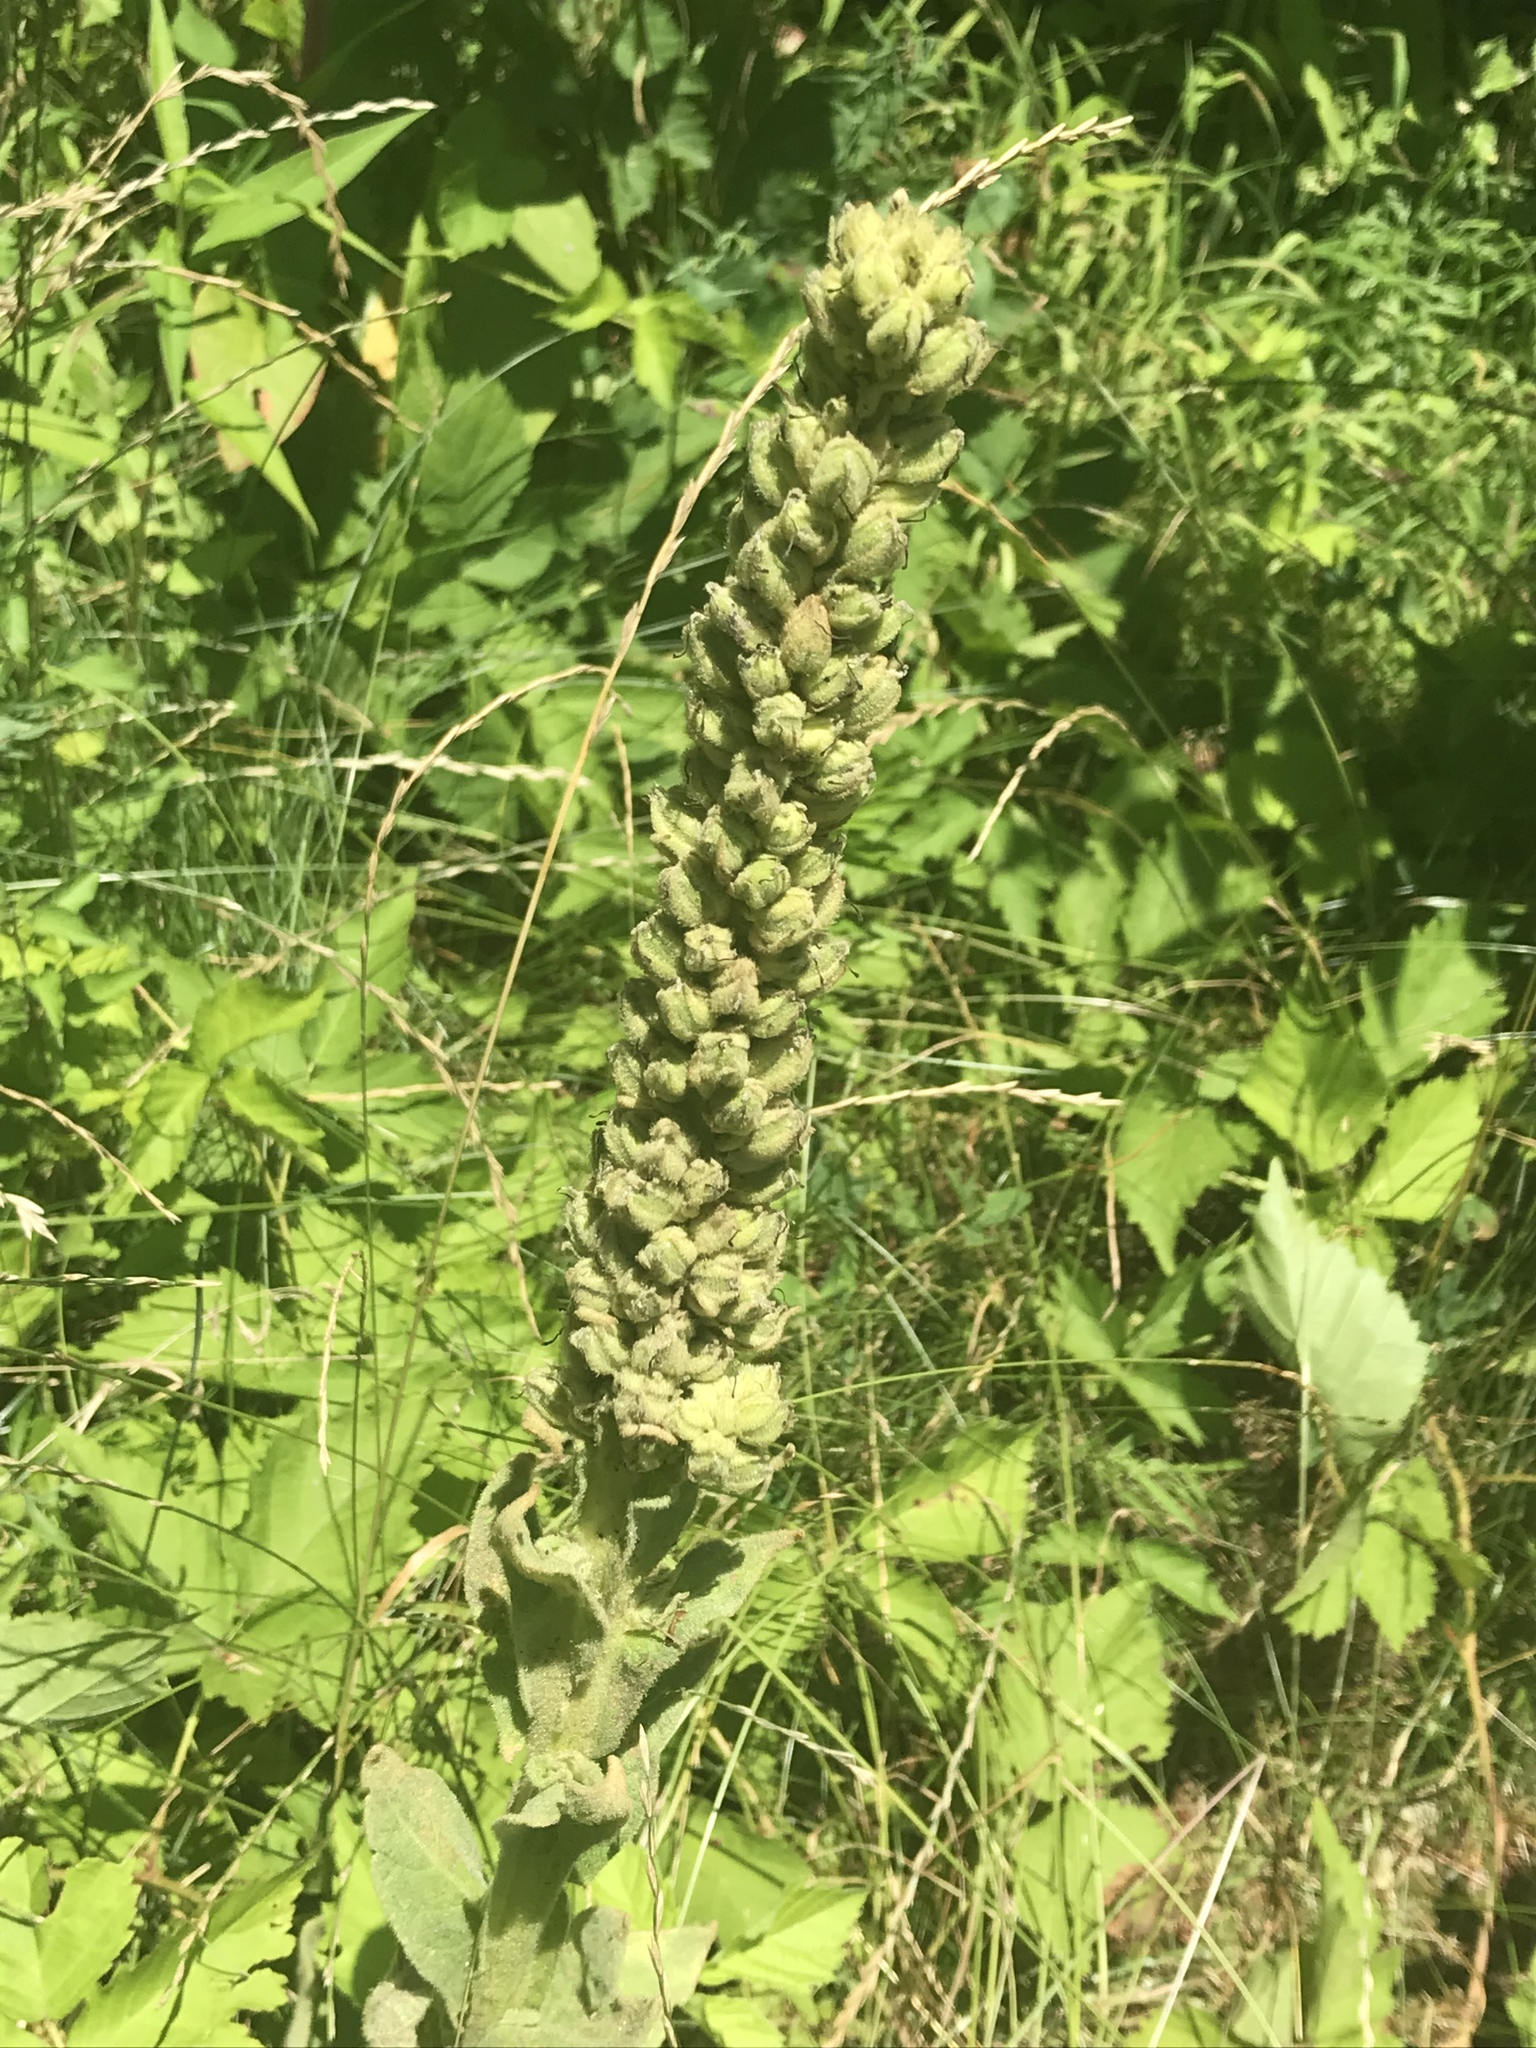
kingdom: Plantae
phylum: Tracheophyta
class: Magnoliopsida
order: Lamiales
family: Scrophulariaceae
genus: Verbascum
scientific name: Verbascum thapsus
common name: Common mullein
